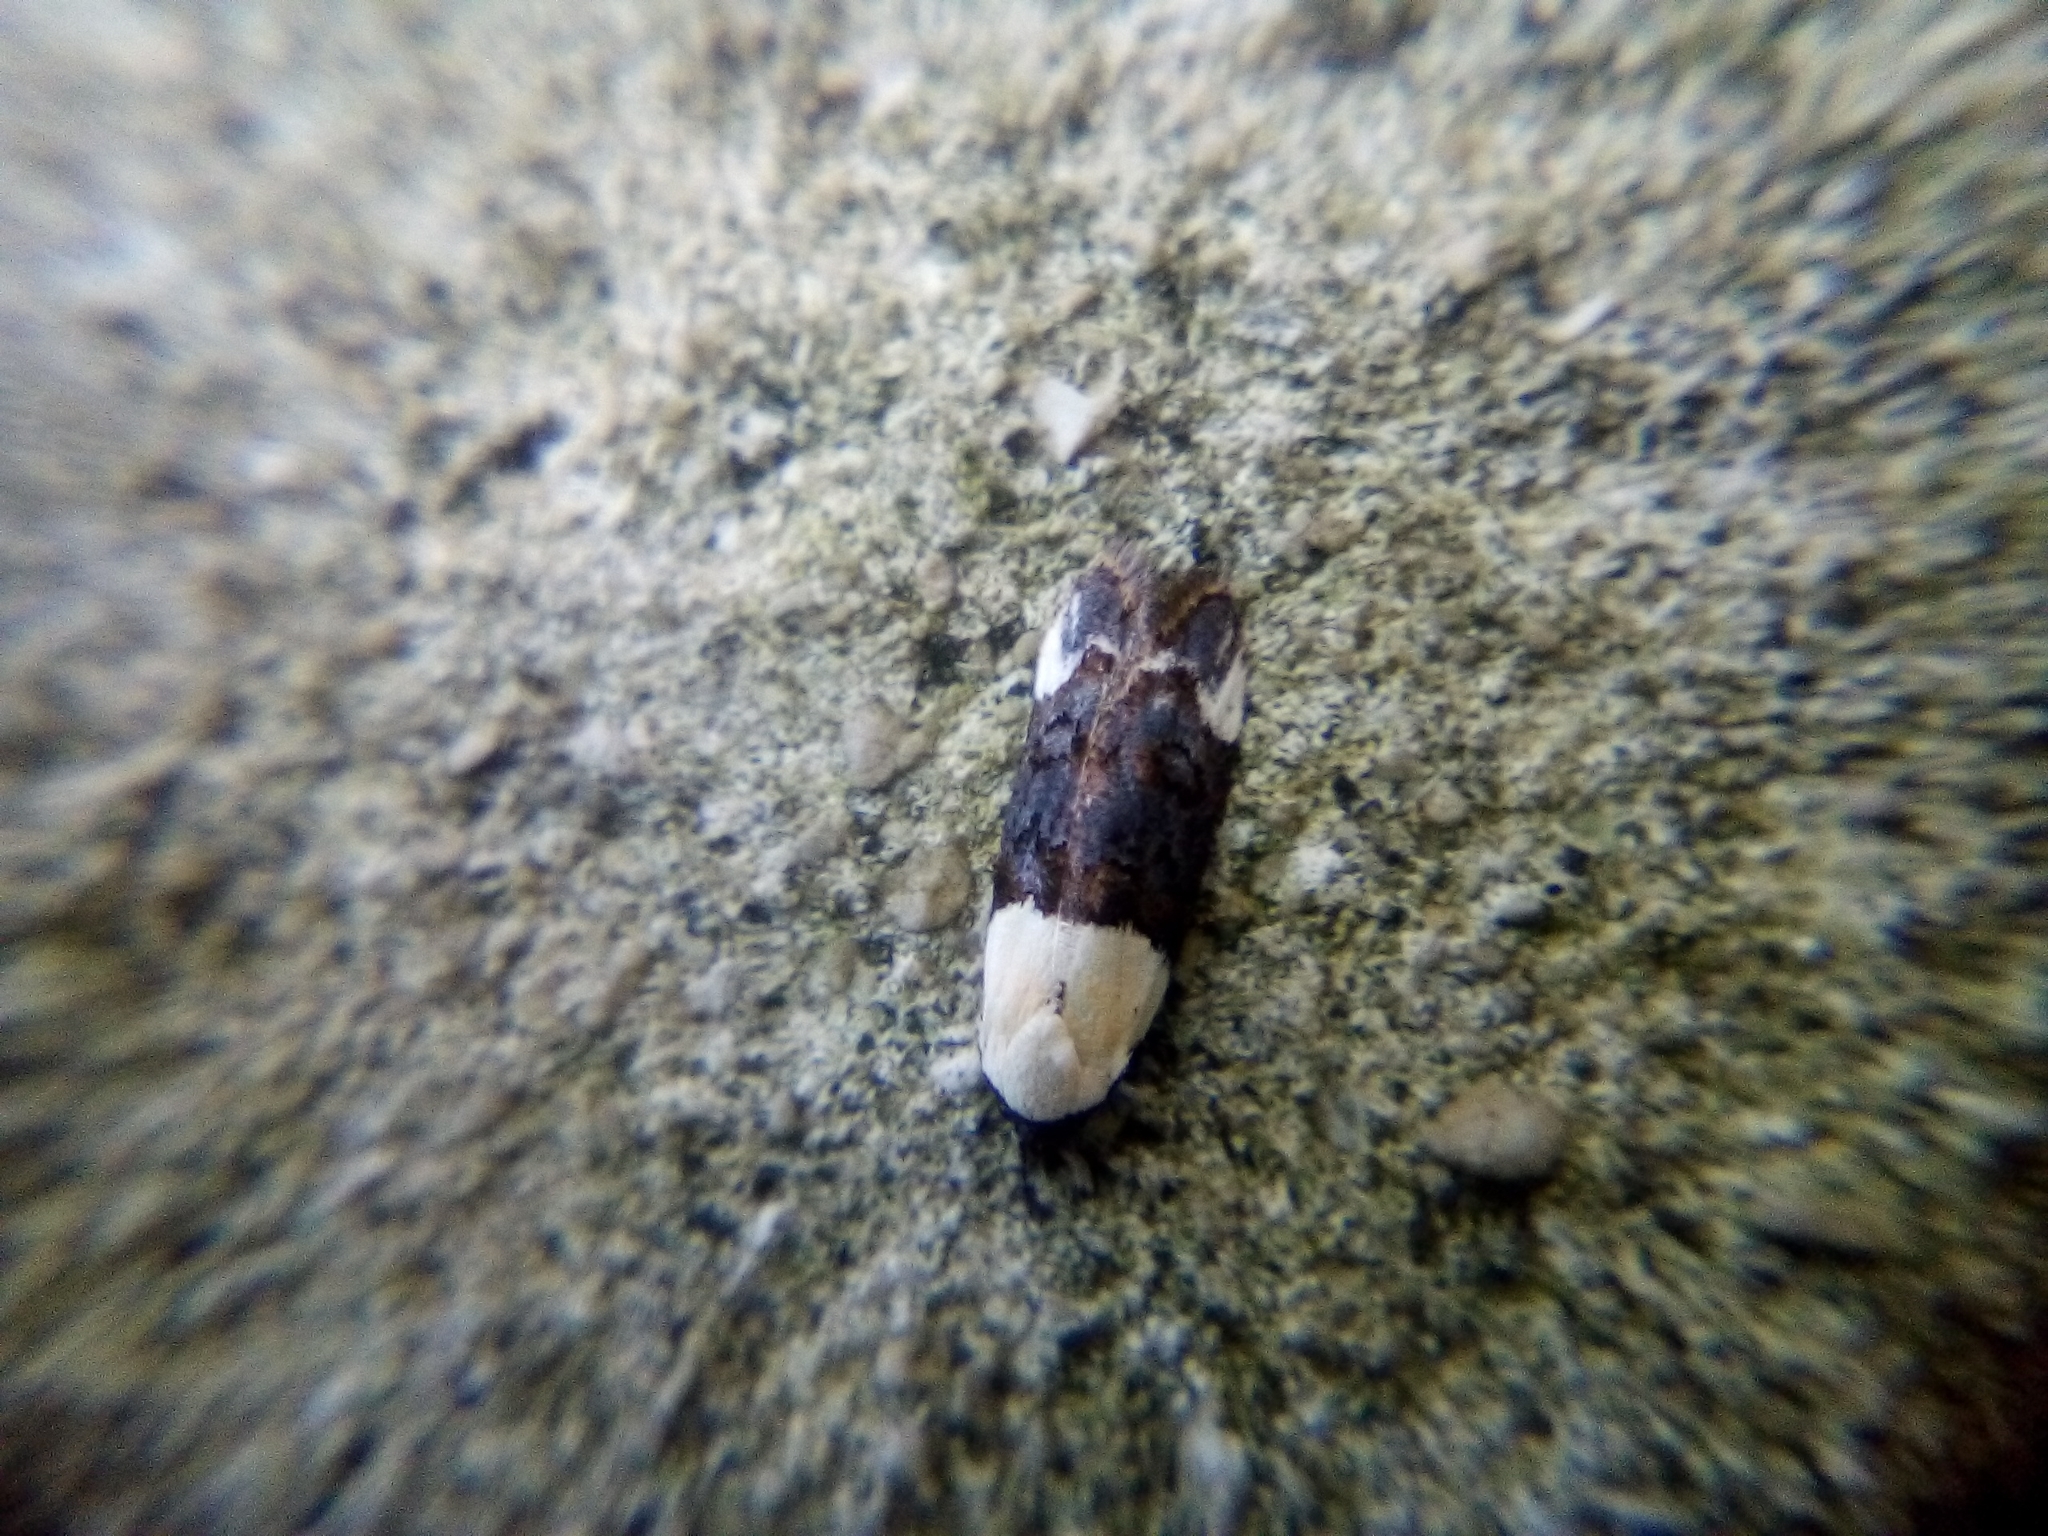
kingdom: Animalia
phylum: Arthropoda
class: Insecta
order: Lepidoptera
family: Oecophoridae
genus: Trachypepla
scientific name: Trachypepla euryleucota
